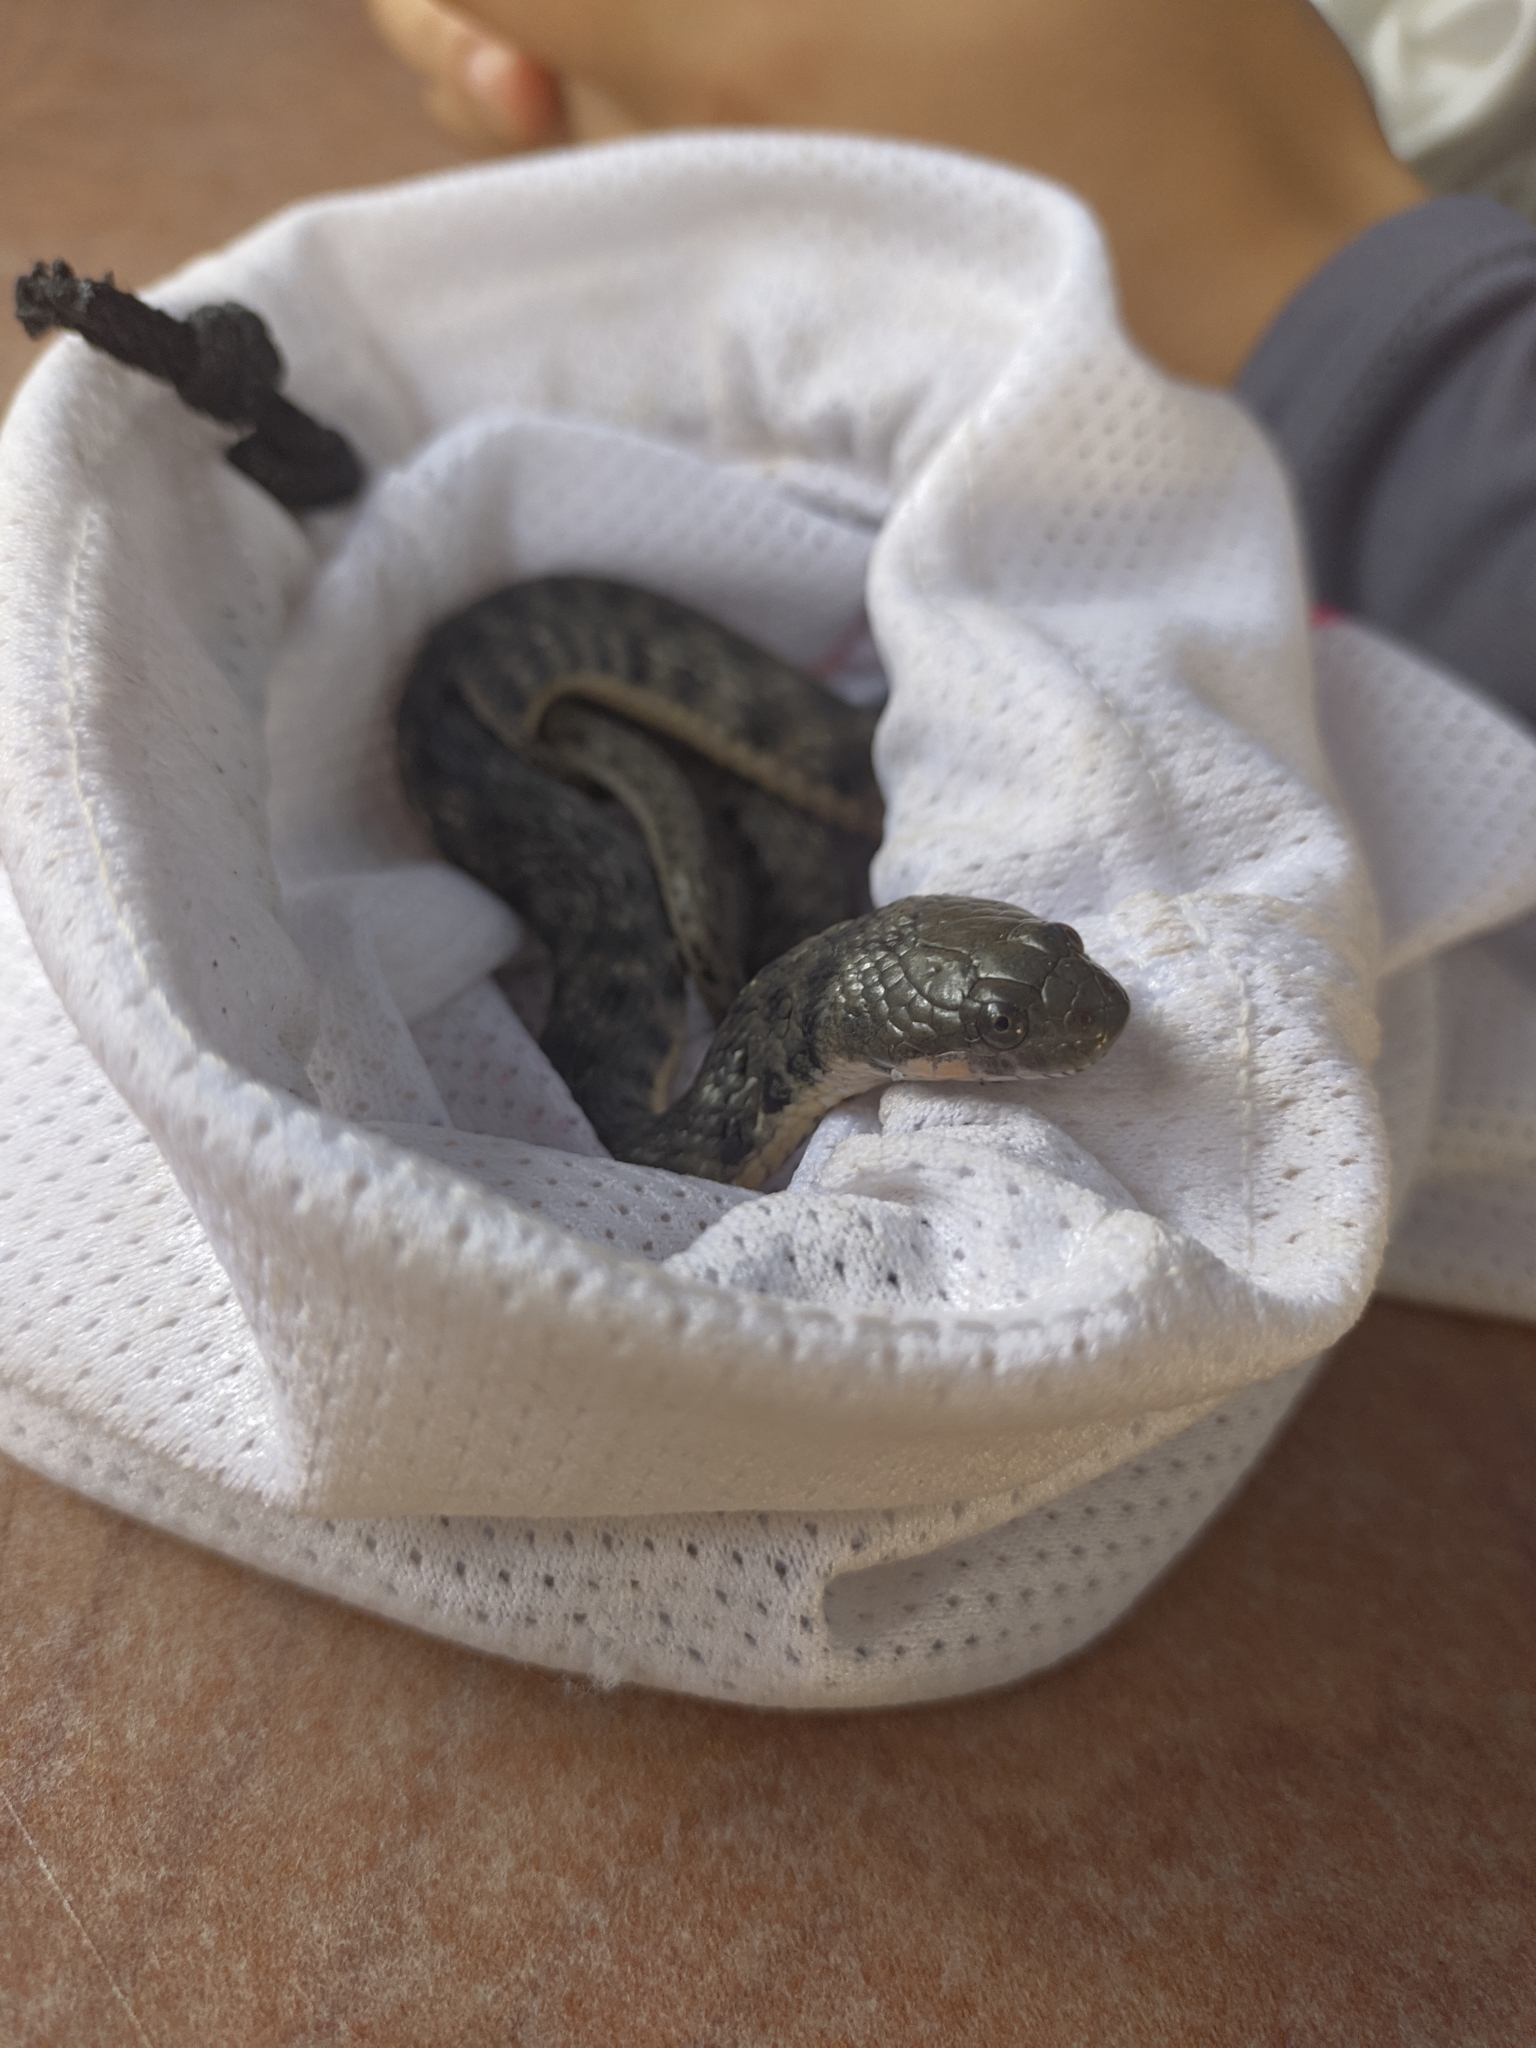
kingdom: Animalia
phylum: Chordata
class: Squamata
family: Colubridae
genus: Helicops
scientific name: Helicops danieli
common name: Daniel's keelback
